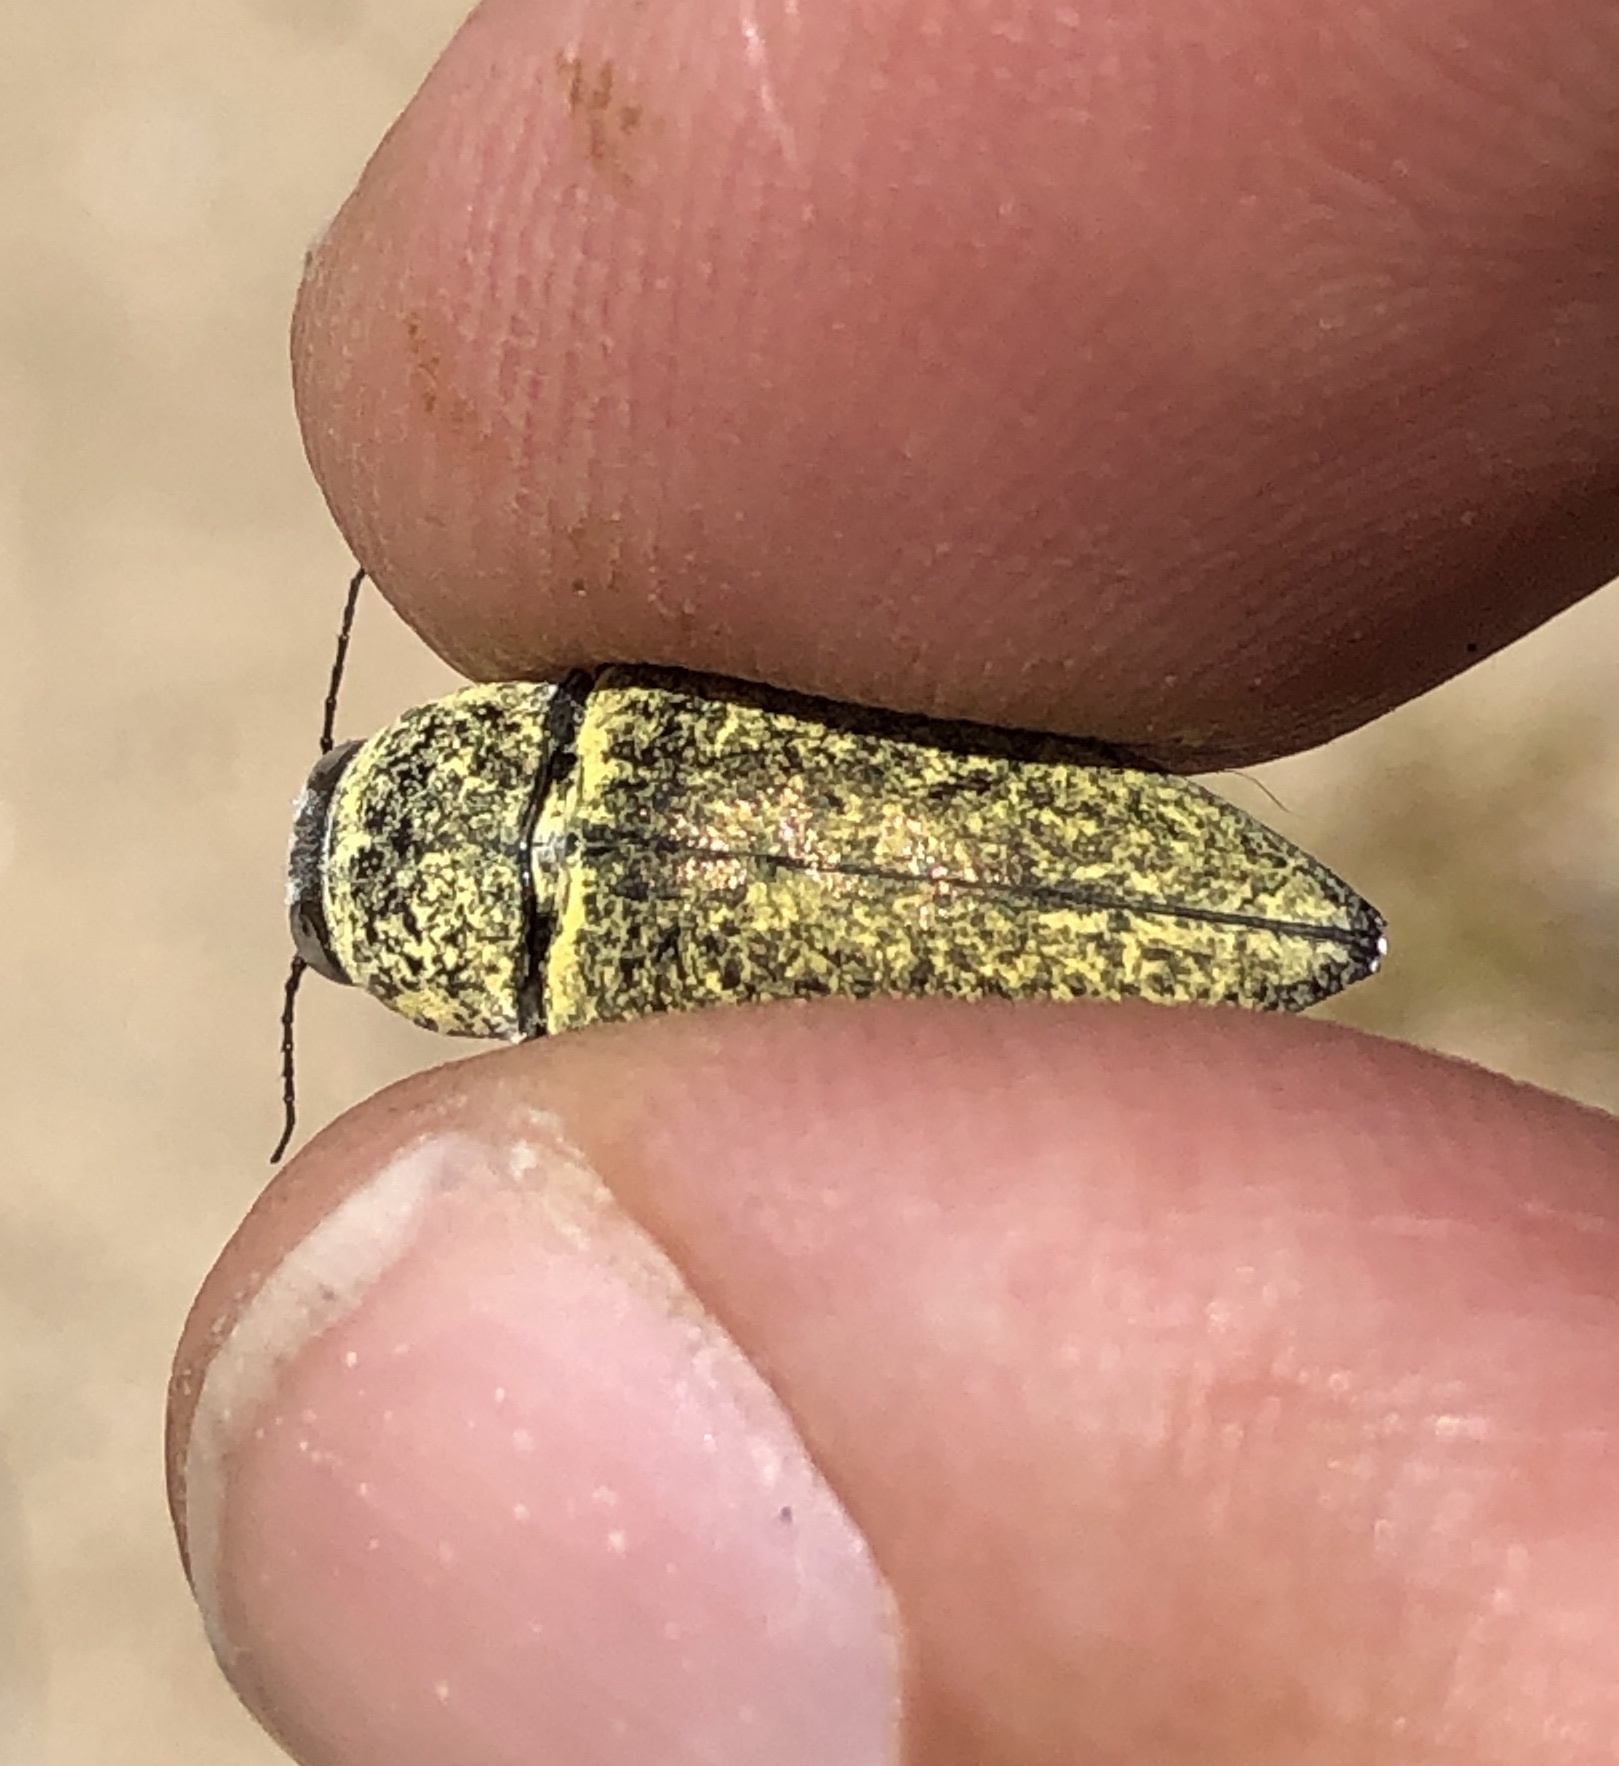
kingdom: Animalia
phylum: Arthropoda
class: Insecta
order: Coleoptera
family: Buprestidae
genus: Gyascutus
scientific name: Gyascutus planicosta
